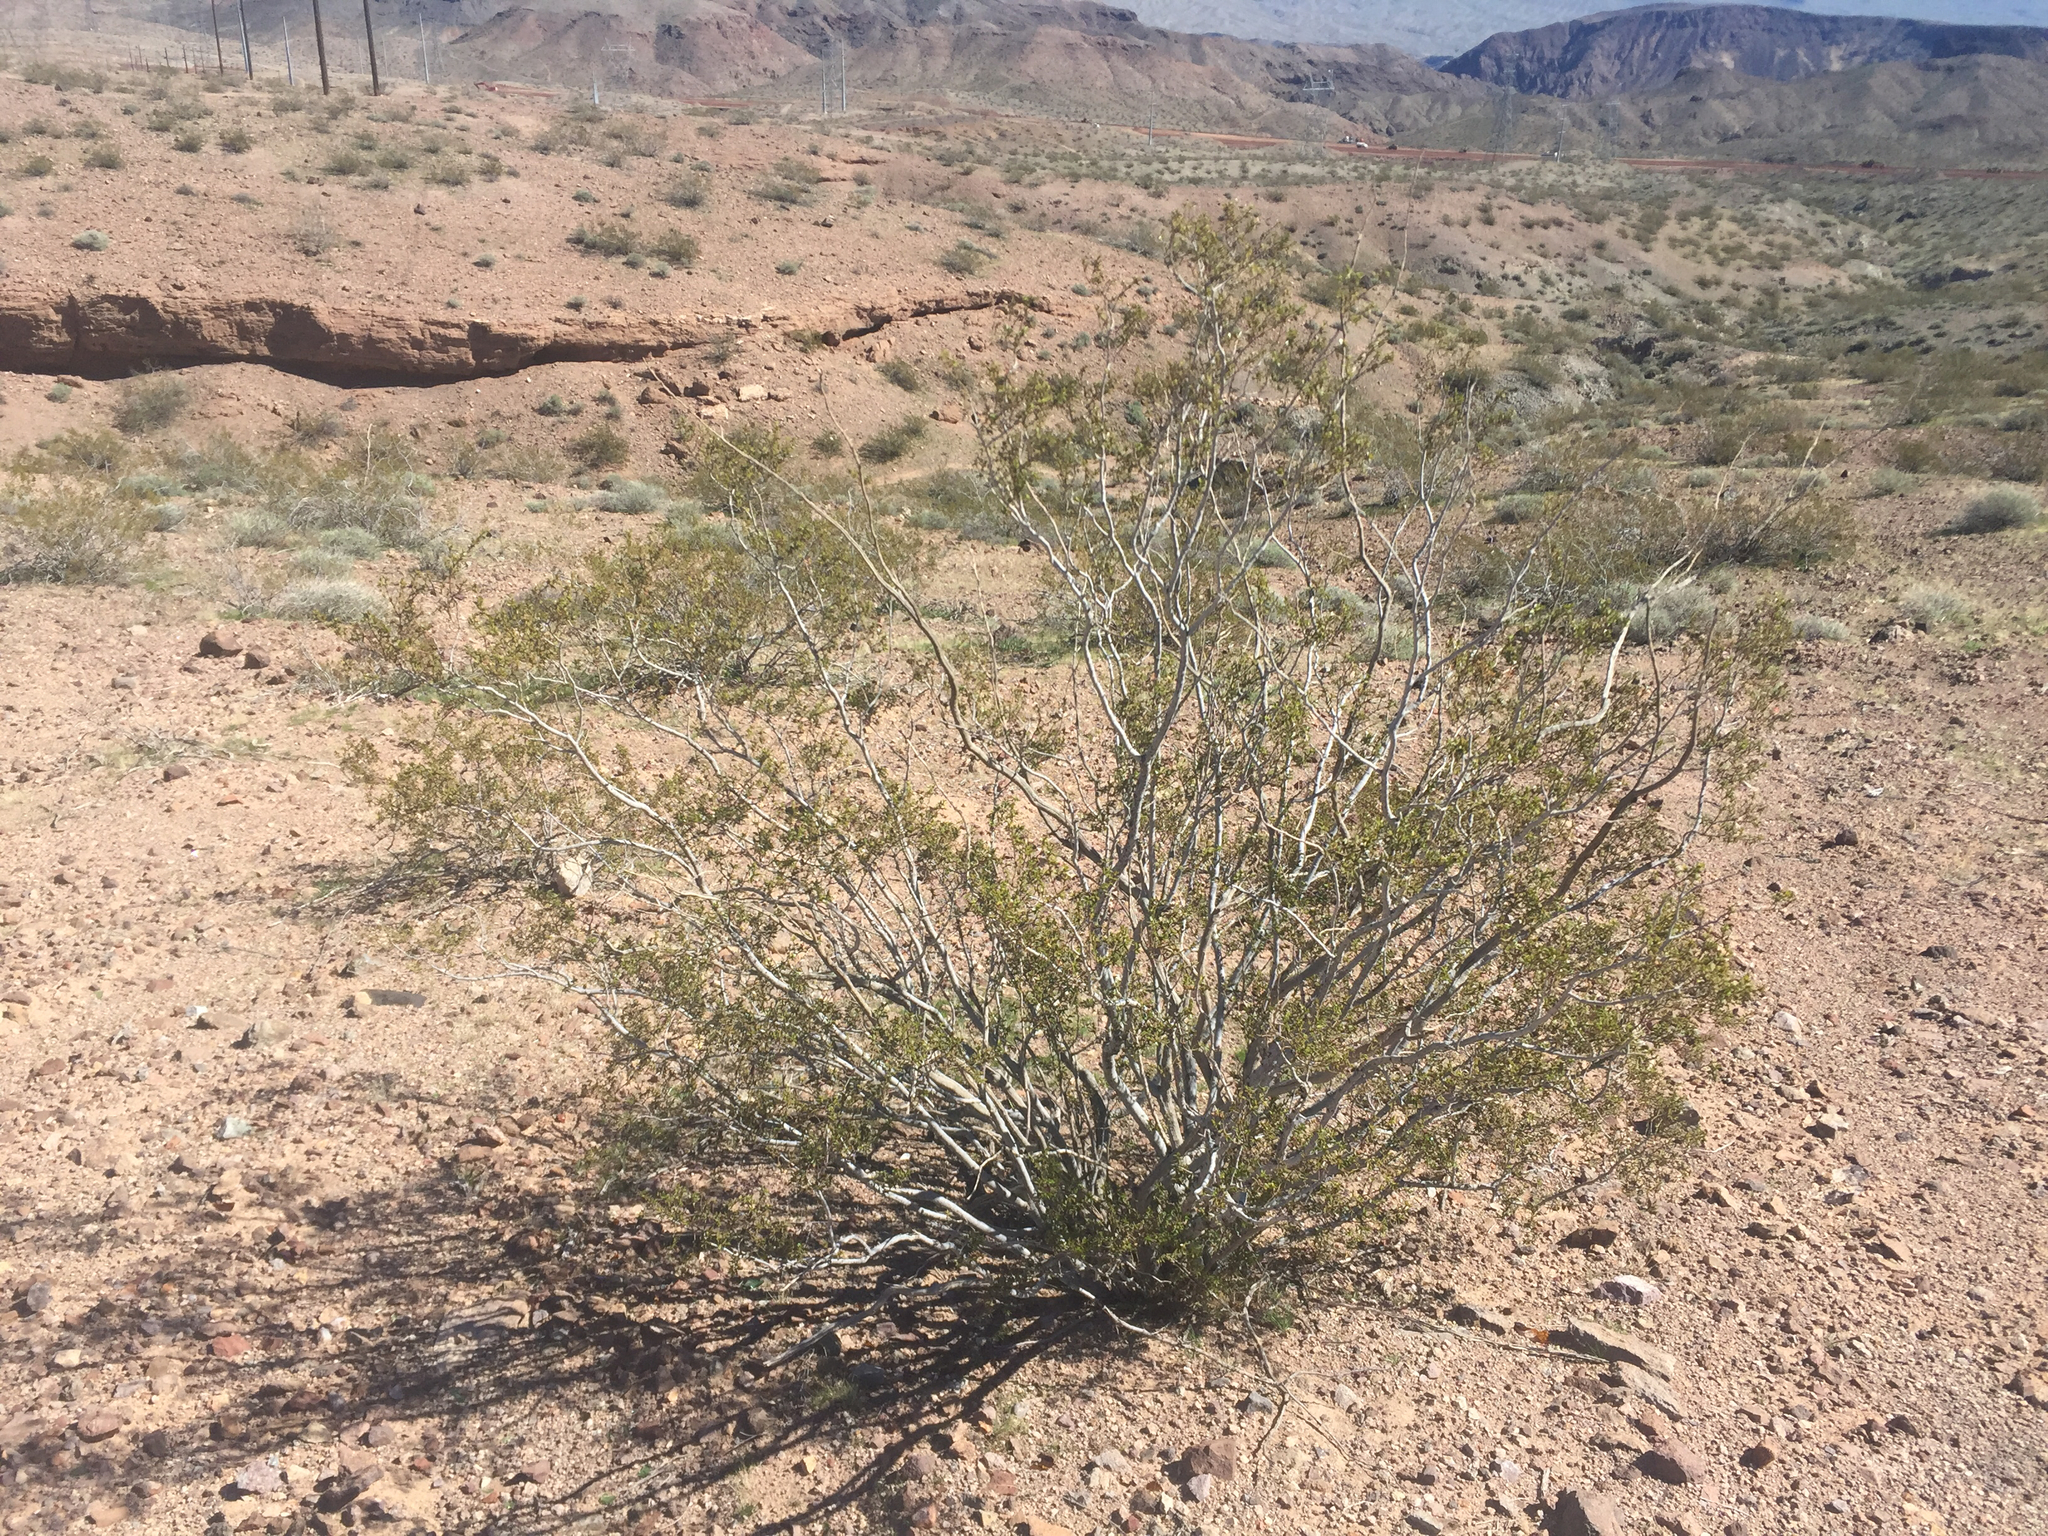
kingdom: Plantae
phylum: Tracheophyta
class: Magnoliopsida
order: Zygophyllales
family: Zygophyllaceae
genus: Larrea
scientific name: Larrea tridentata
